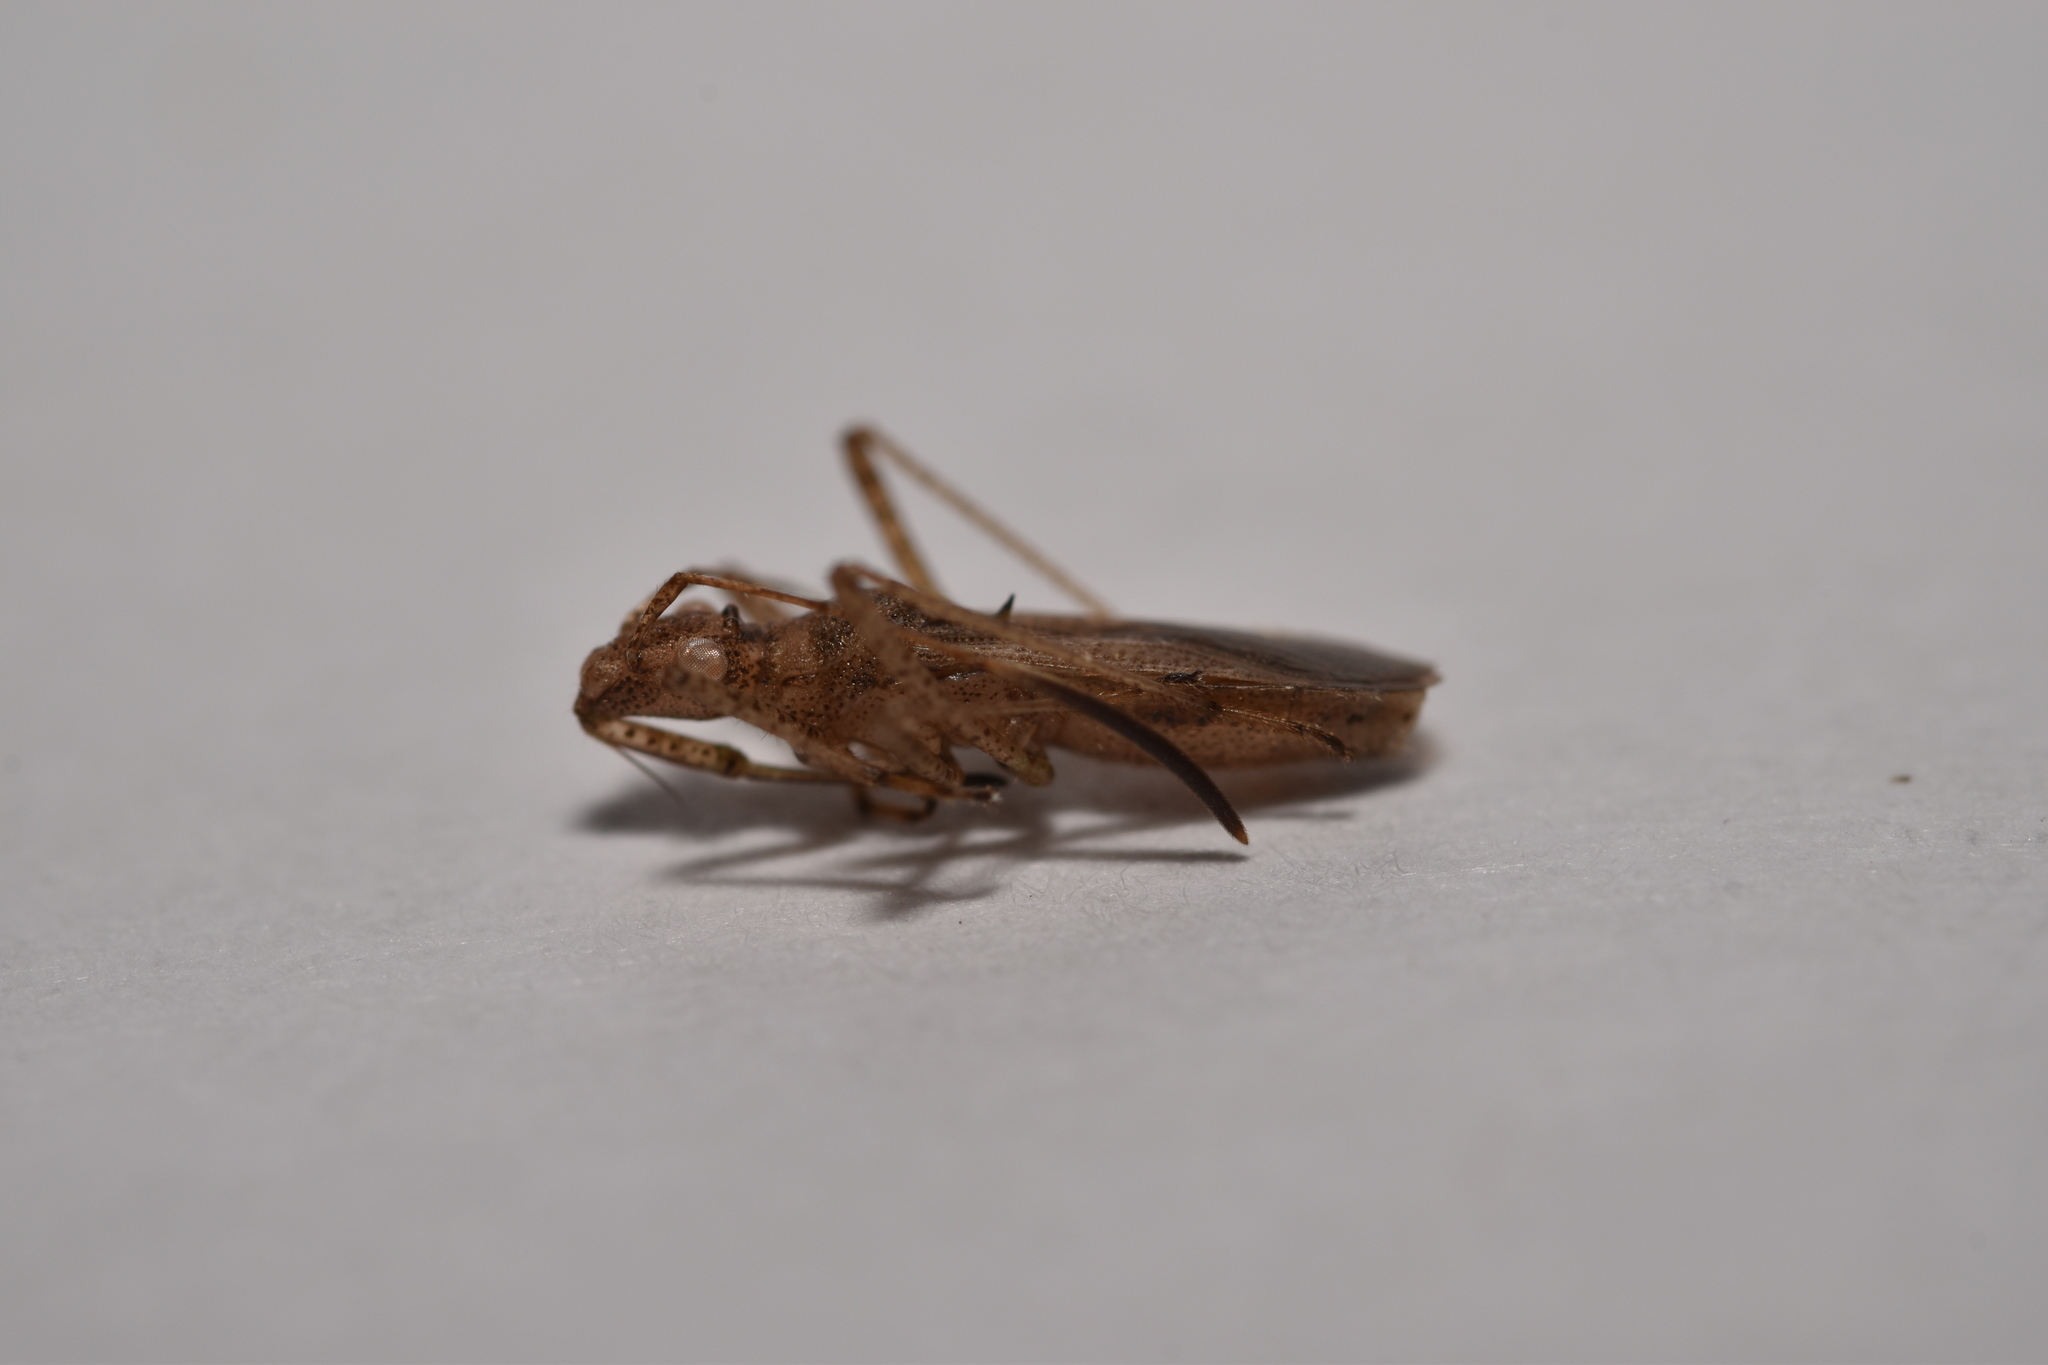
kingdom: Animalia
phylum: Arthropoda
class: Insecta
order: Hemiptera
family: Alydidae
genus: Esperanza
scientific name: Esperanza texana
